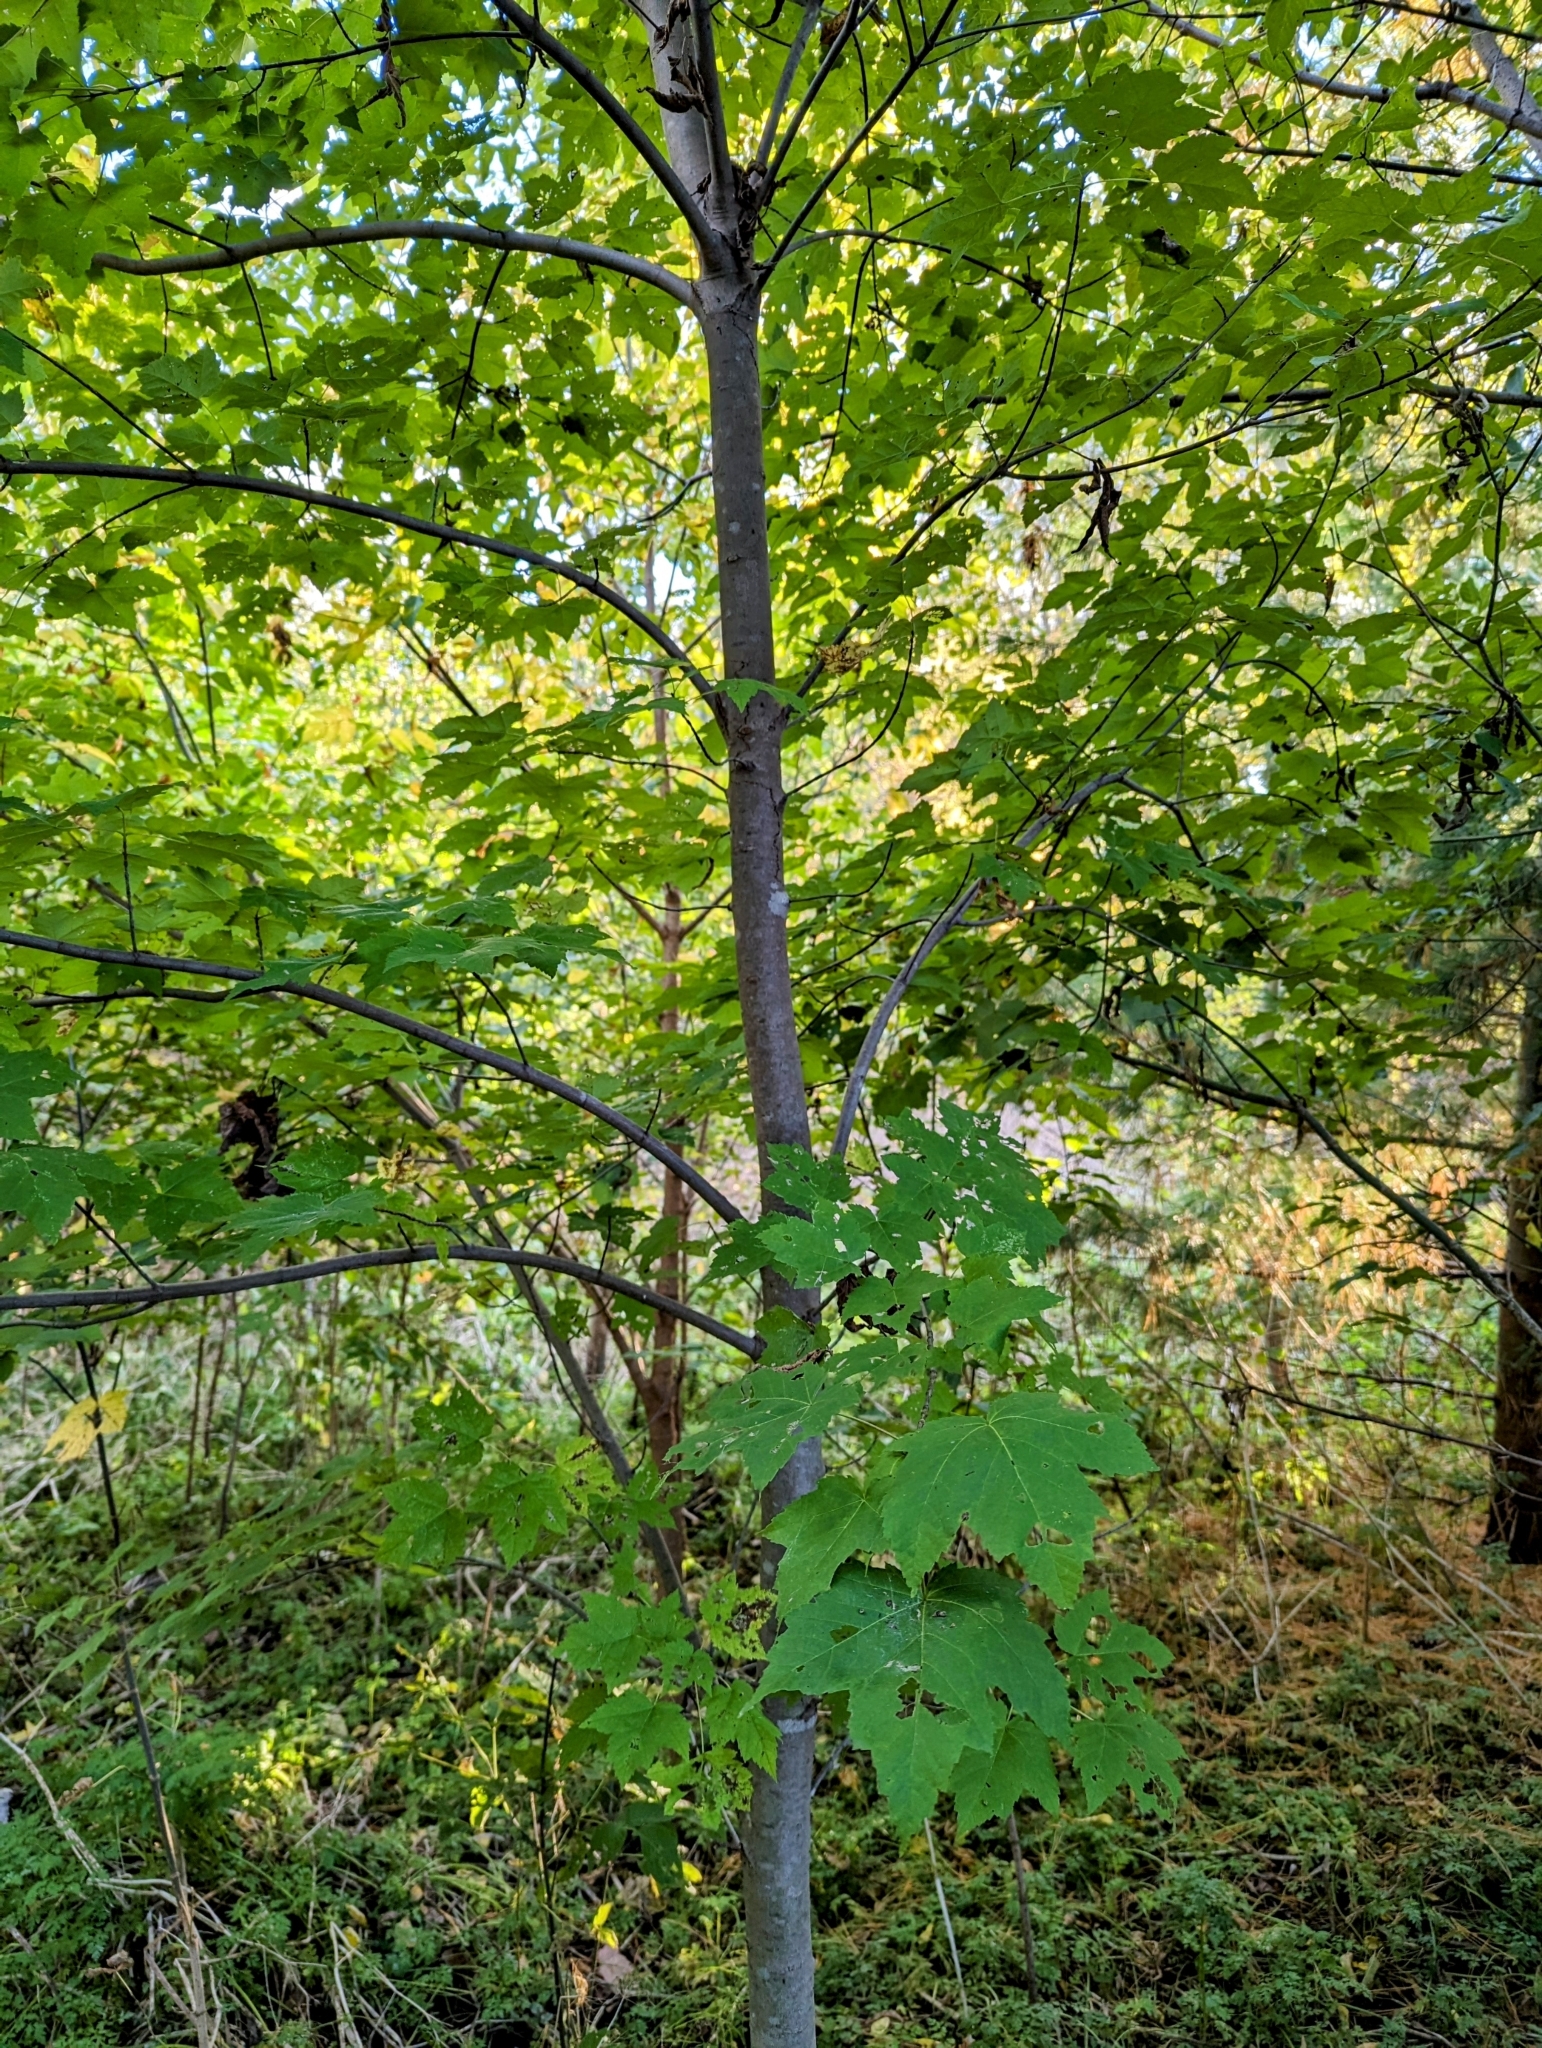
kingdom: Plantae
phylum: Tracheophyta
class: Magnoliopsida
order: Sapindales
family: Sapindaceae
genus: Acer
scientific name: Acer rubrum
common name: Red maple
